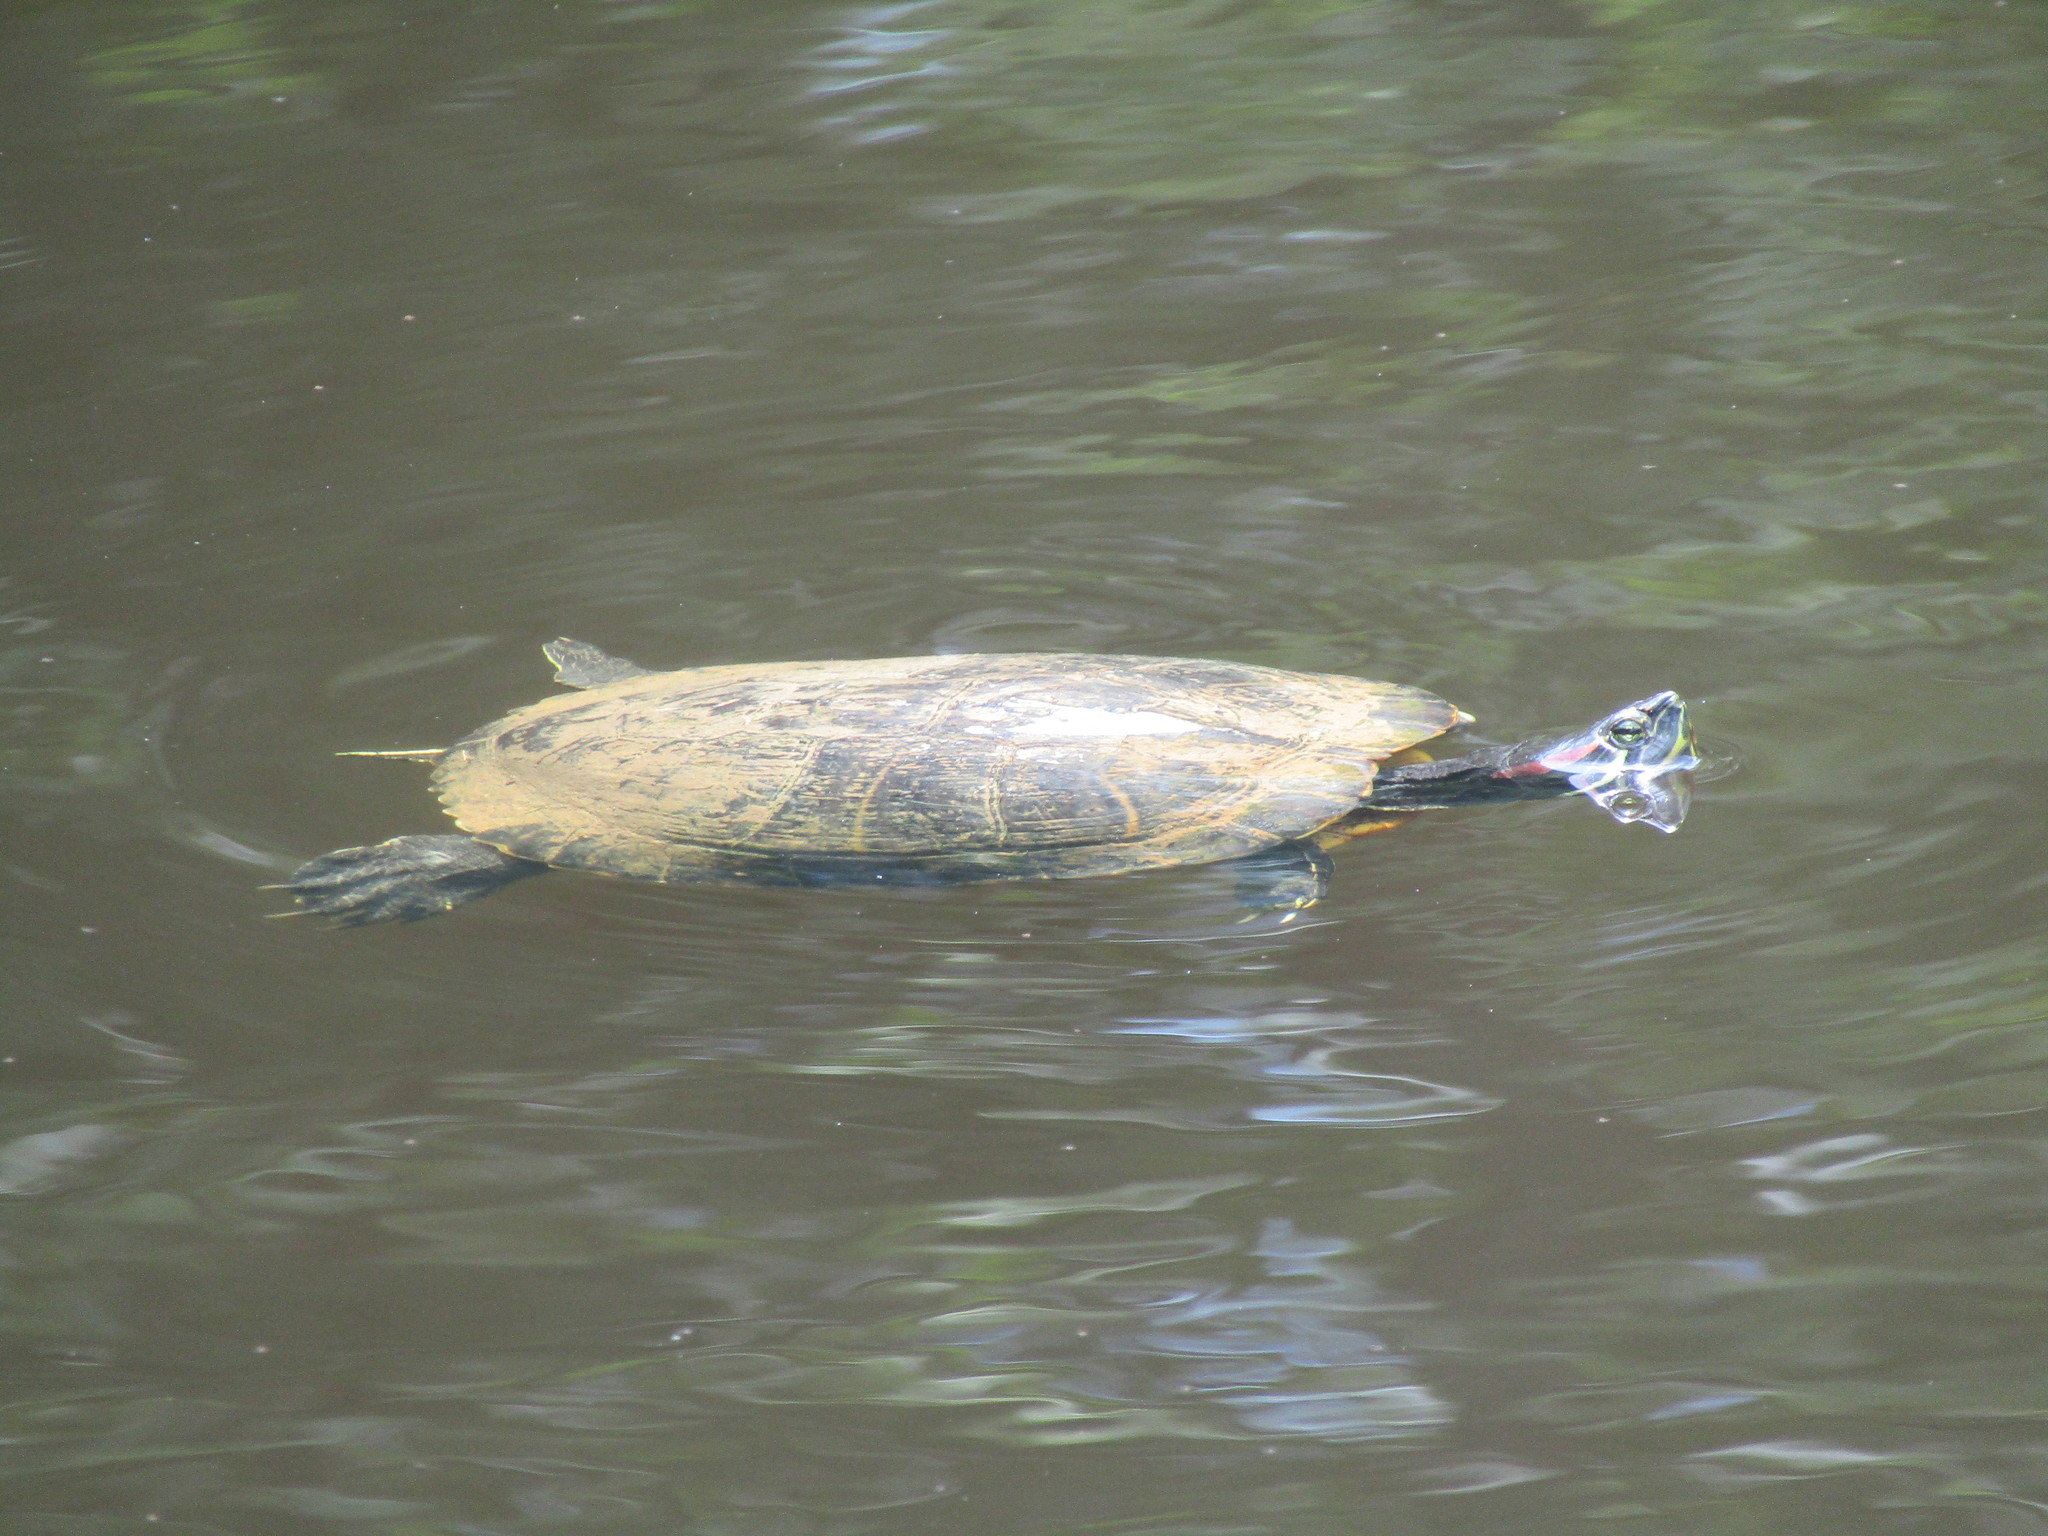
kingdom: Animalia
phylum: Chordata
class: Testudines
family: Emydidae
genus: Trachemys
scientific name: Trachemys scripta
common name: Slider
